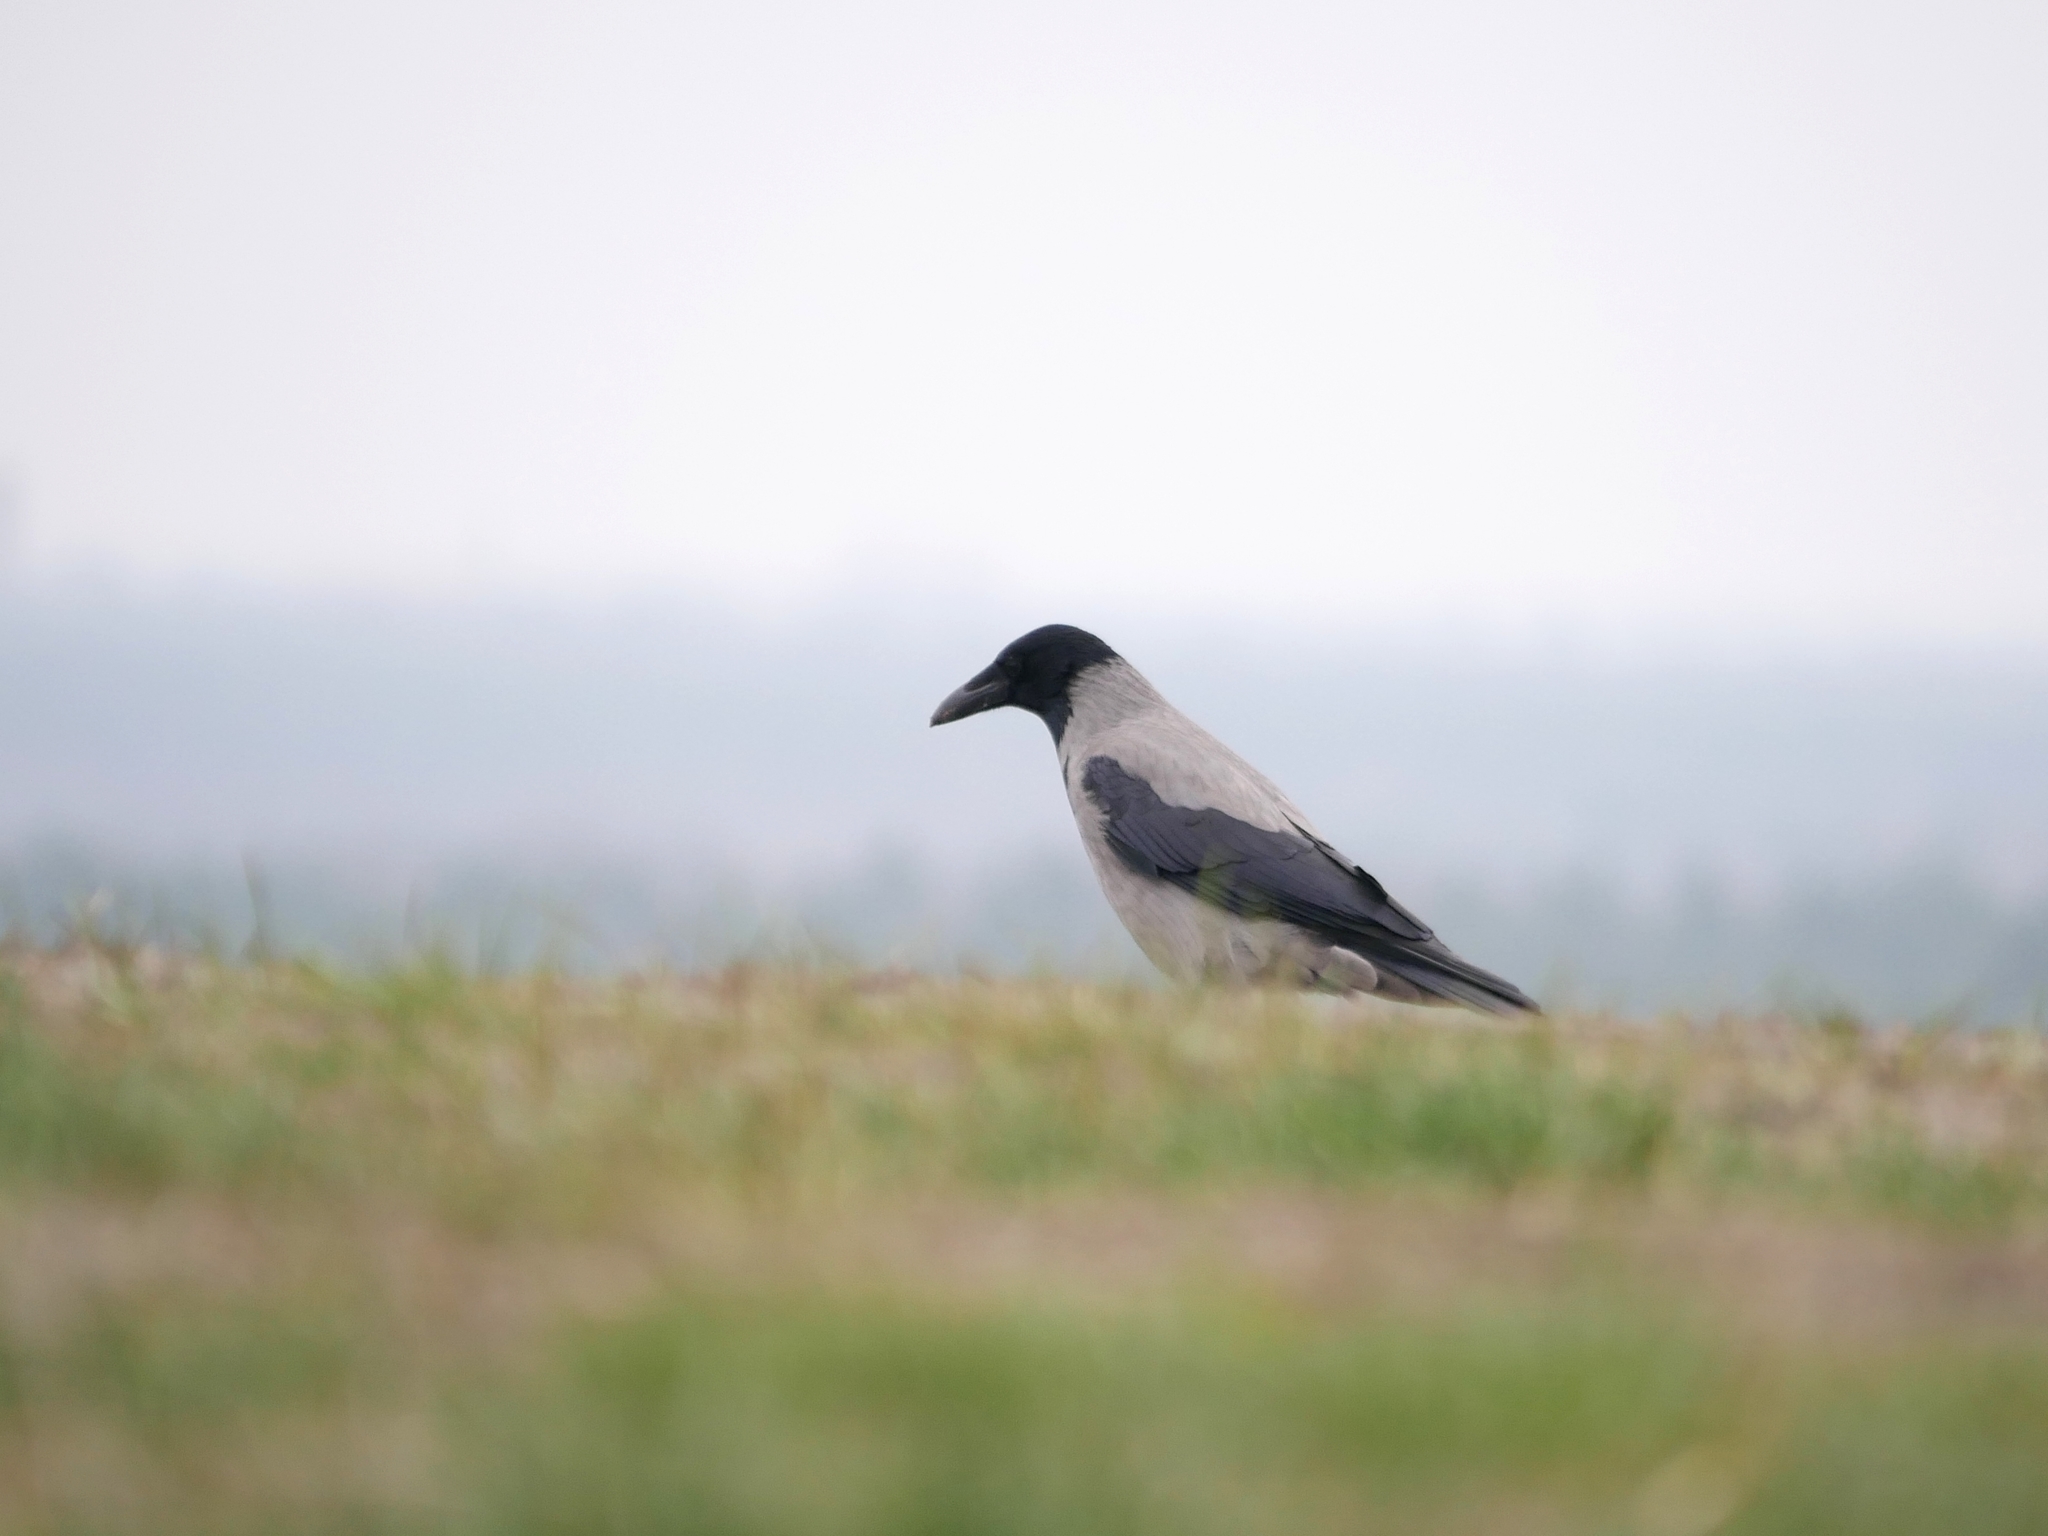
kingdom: Animalia
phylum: Chordata
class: Aves
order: Passeriformes
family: Corvidae
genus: Corvus
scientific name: Corvus cornix
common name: Hooded crow
